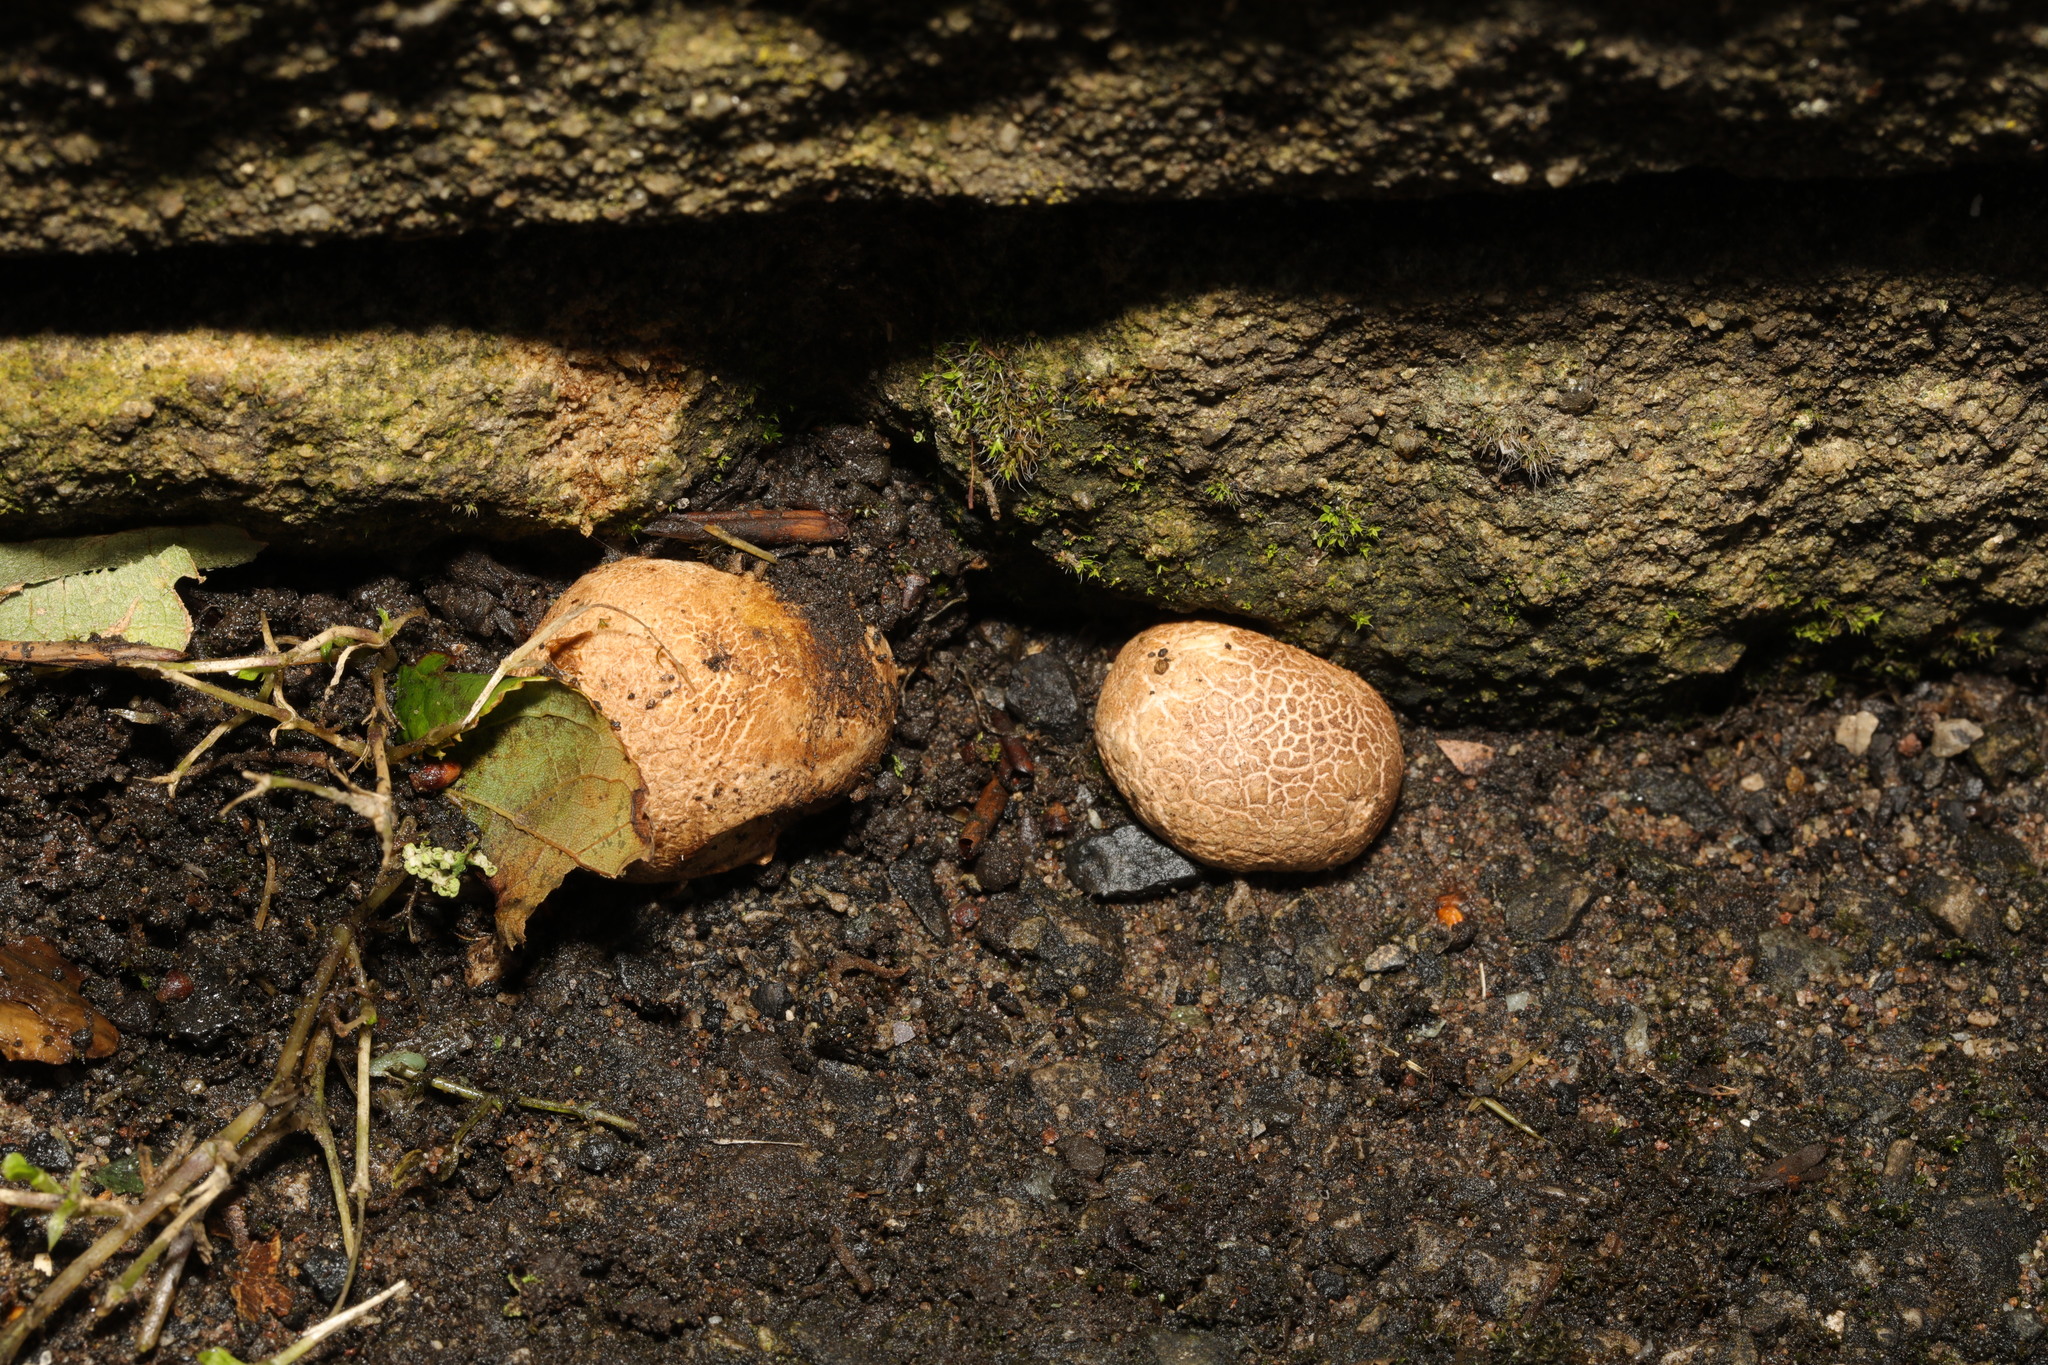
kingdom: Fungi
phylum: Basidiomycota
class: Agaricomycetes
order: Boletales
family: Sclerodermataceae
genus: Scleroderma
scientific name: Scleroderma citrinum
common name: Common earthball
